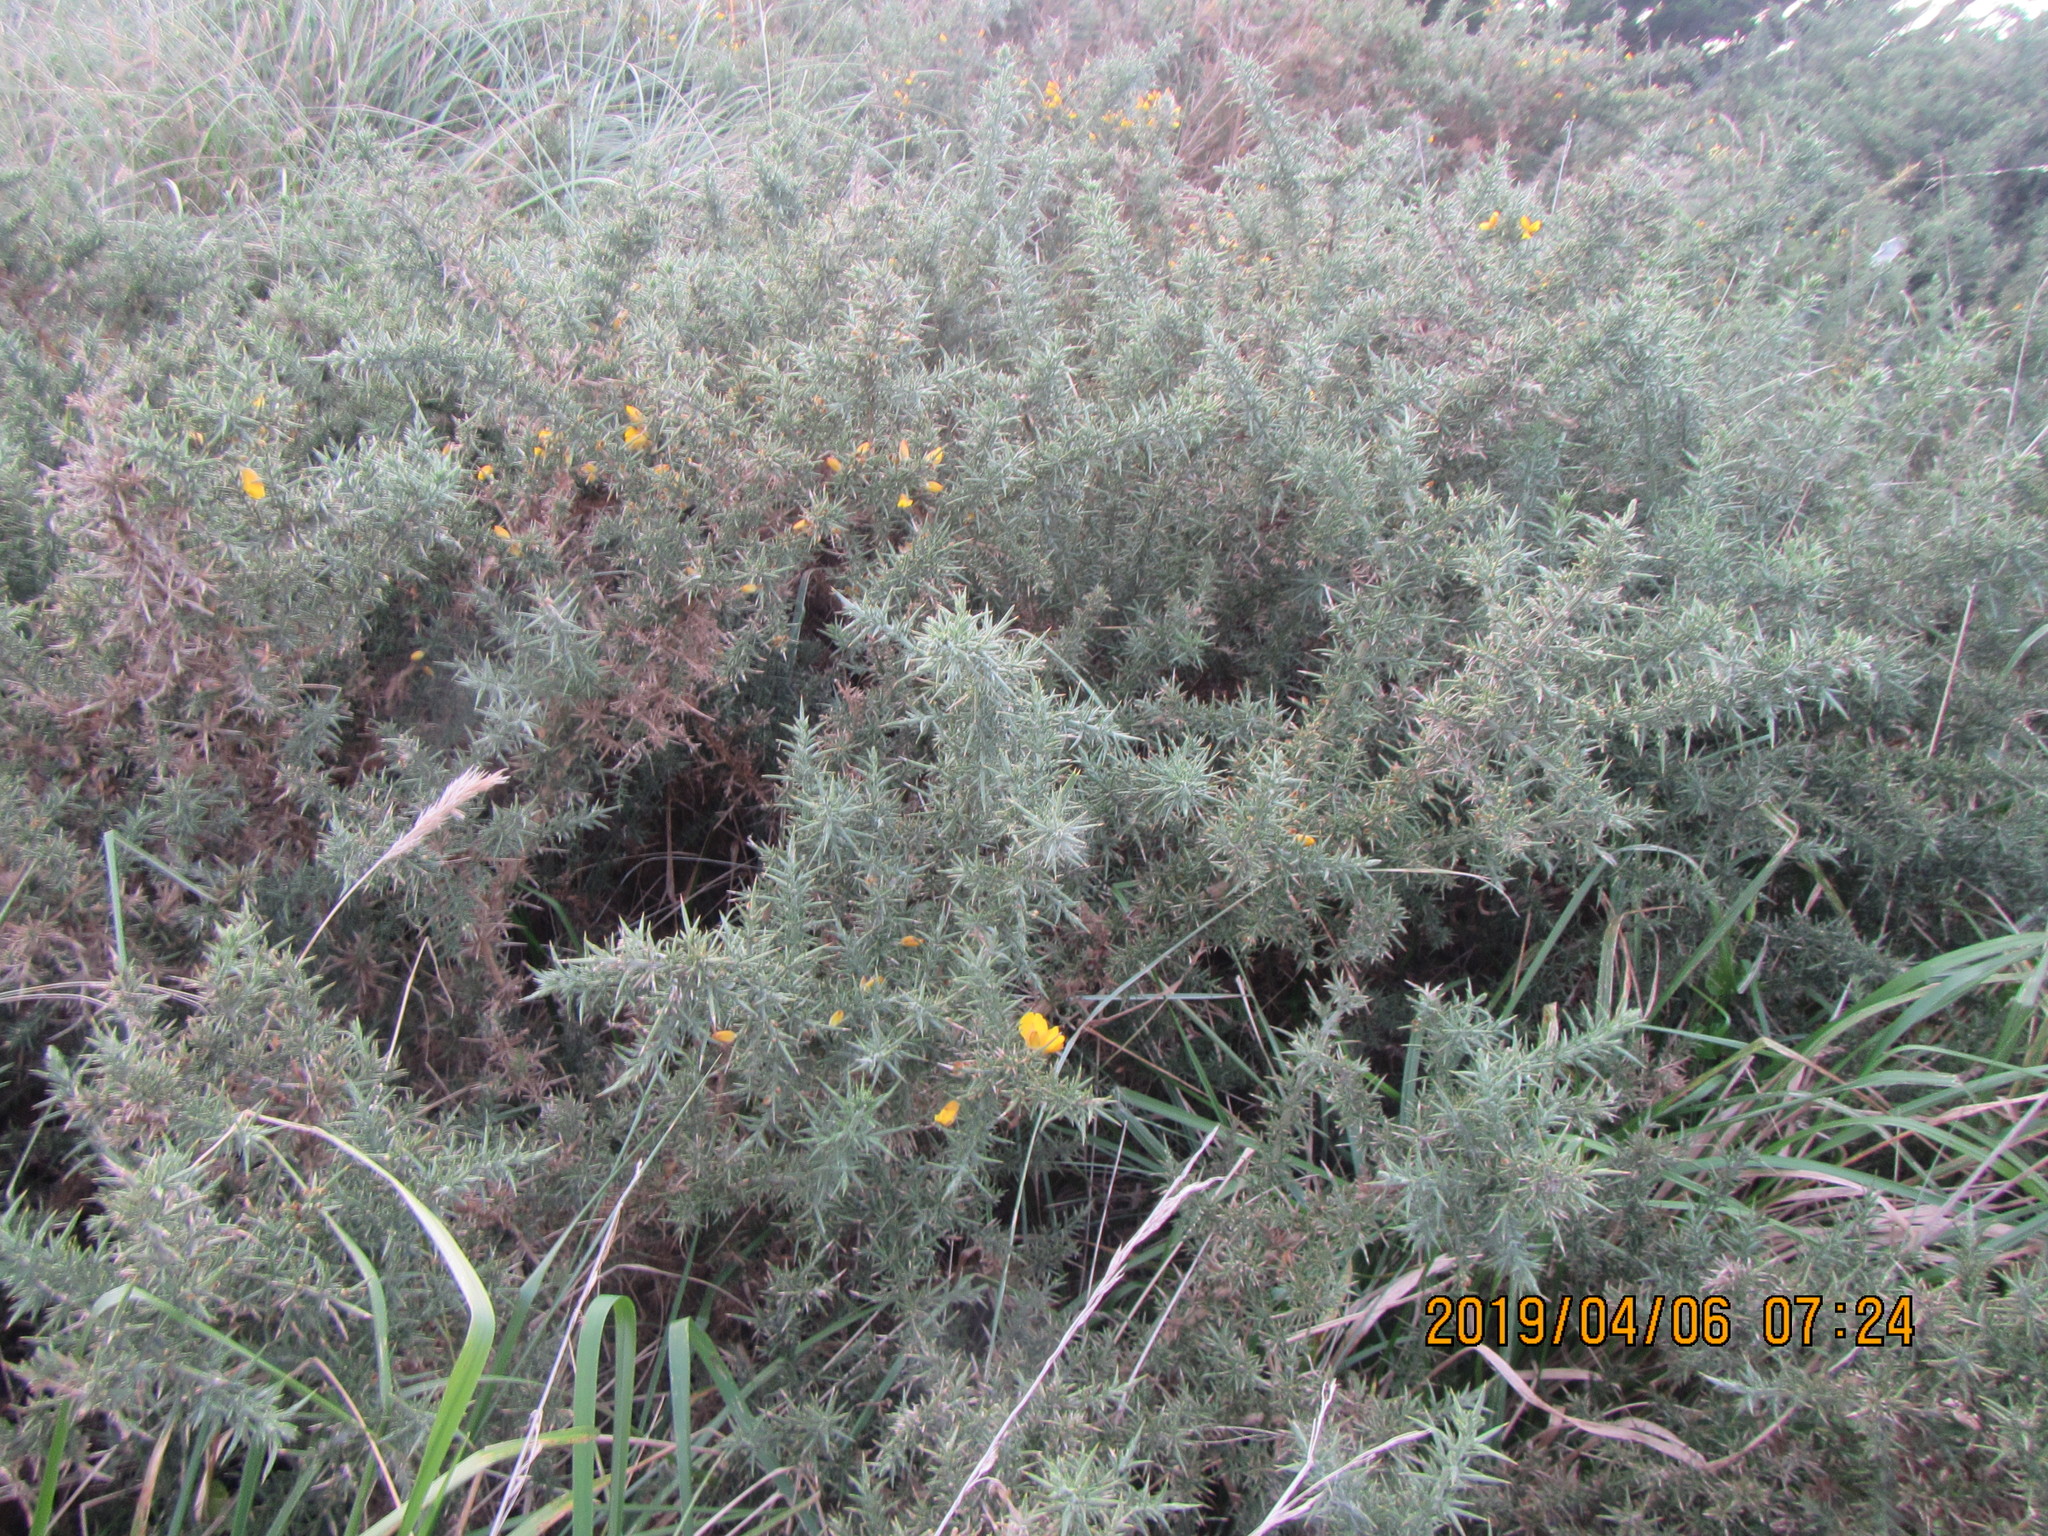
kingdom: Plantae
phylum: Tracheophyta
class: Magnoliopsida
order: Fabales
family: Fabaceae
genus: Ulex
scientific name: Ulex europaeus
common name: Common gorse
